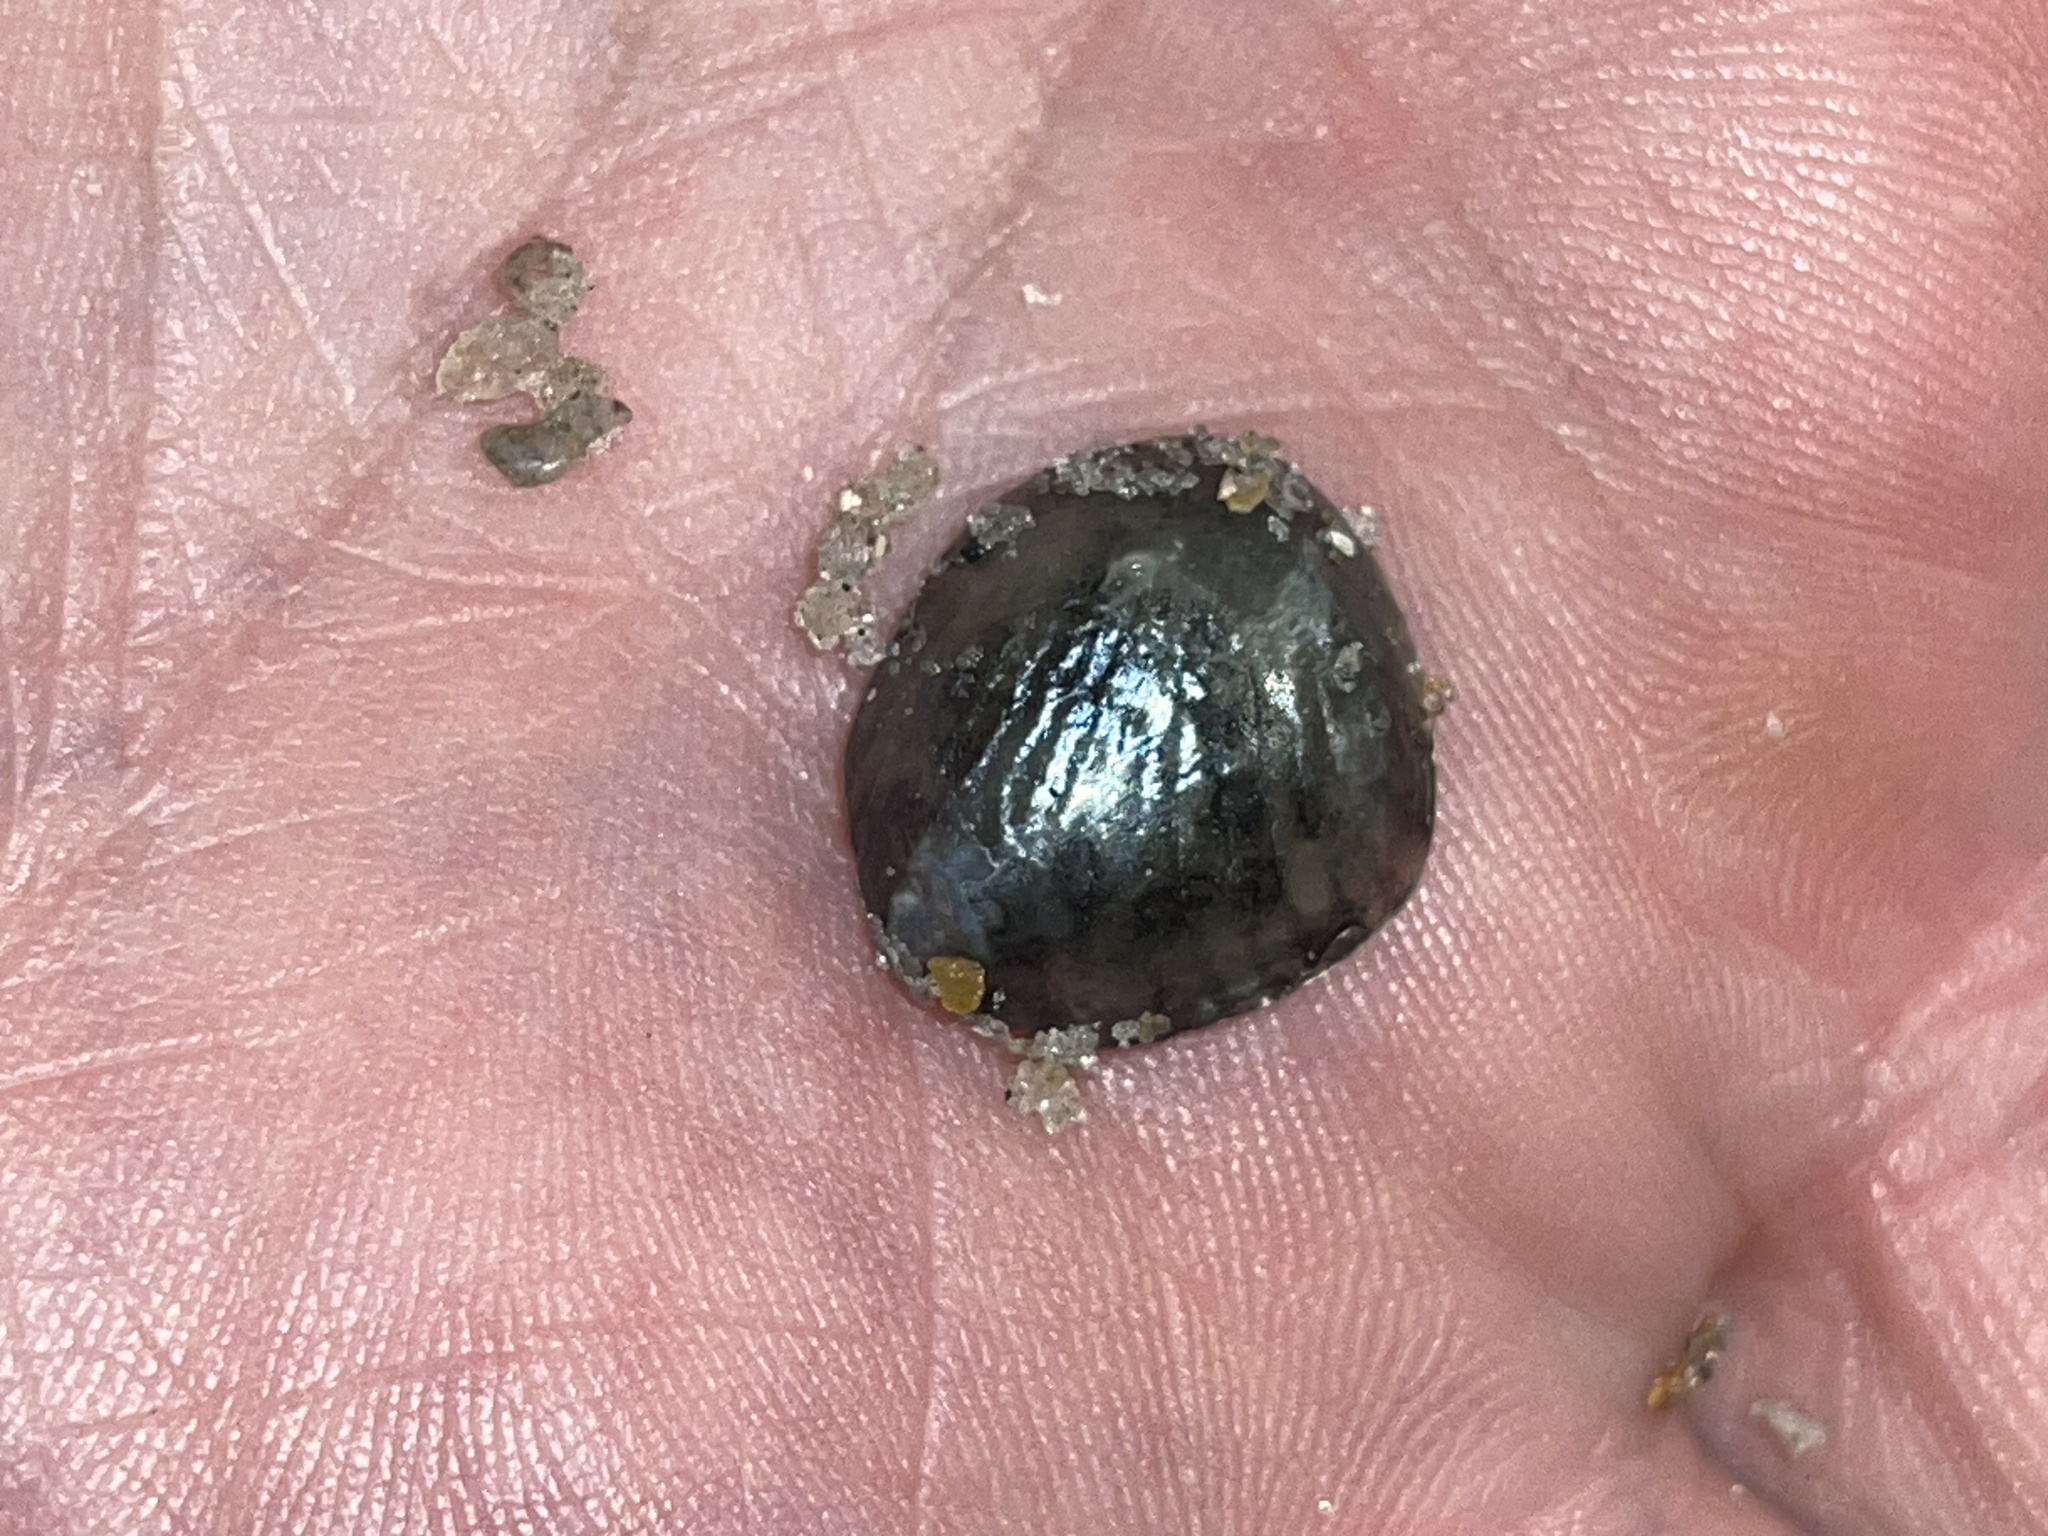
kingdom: Animalia
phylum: Mollusca
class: Bivalvia
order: Pectinida
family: Anomiidae
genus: Anomia
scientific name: Anomia simplex
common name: Common jingle shell
